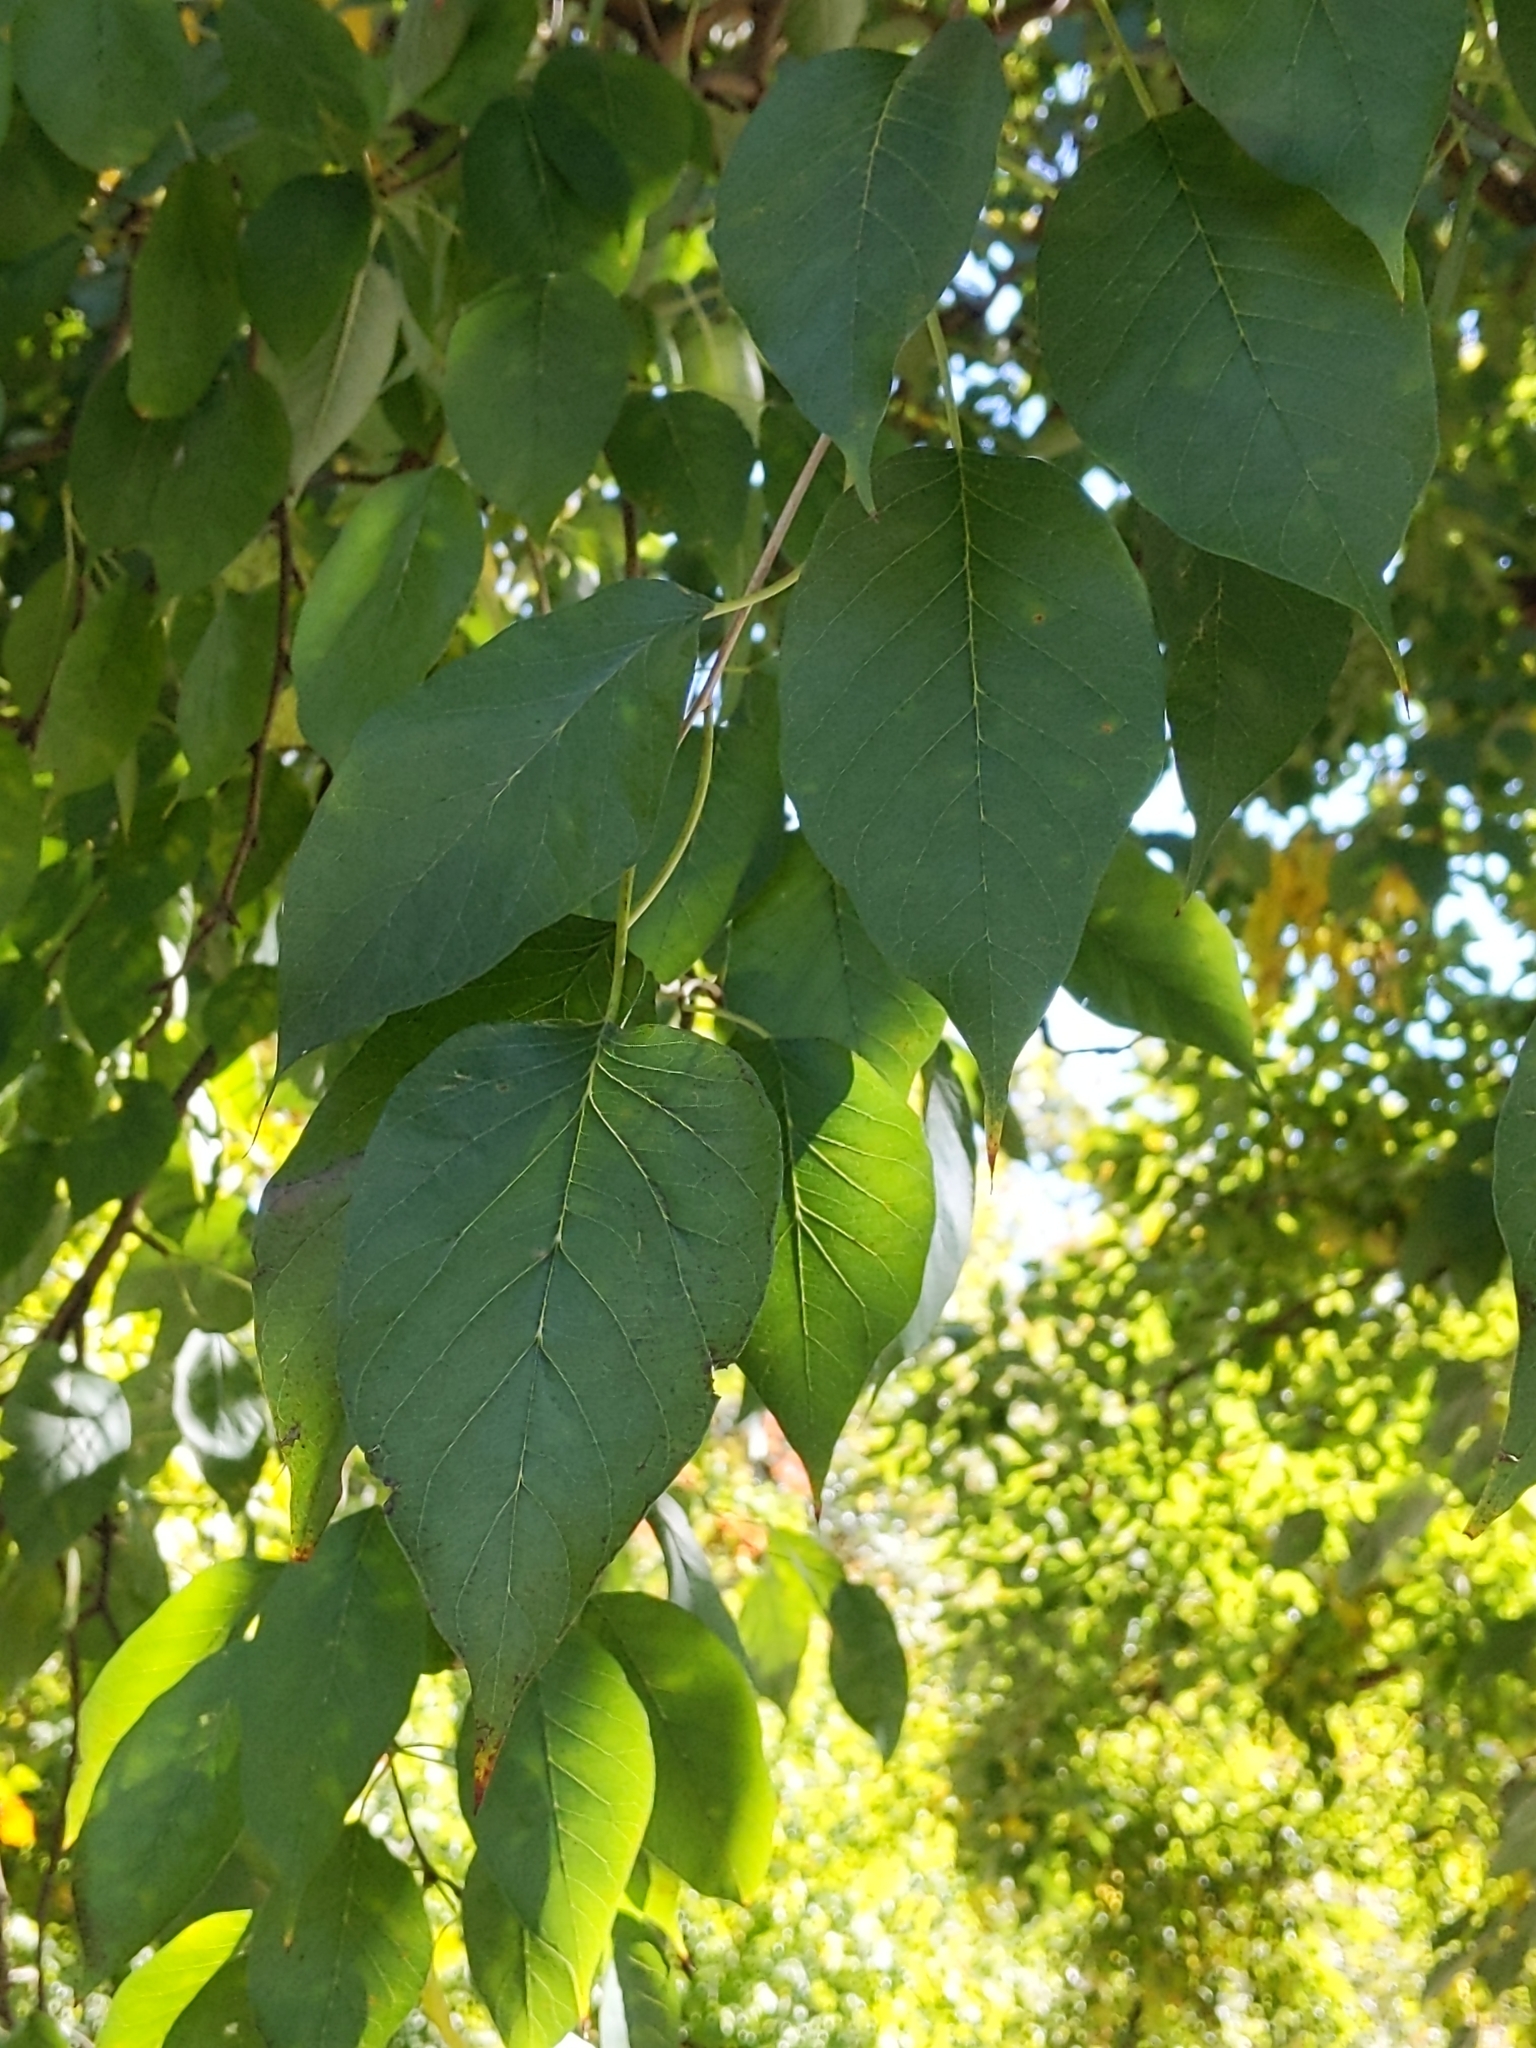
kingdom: Plantae
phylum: Tracheophyta
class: Magnoliopsida
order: Rosales
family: Moraceae
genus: Maclura
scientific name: Maclura pomifera
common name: Osage-orange
